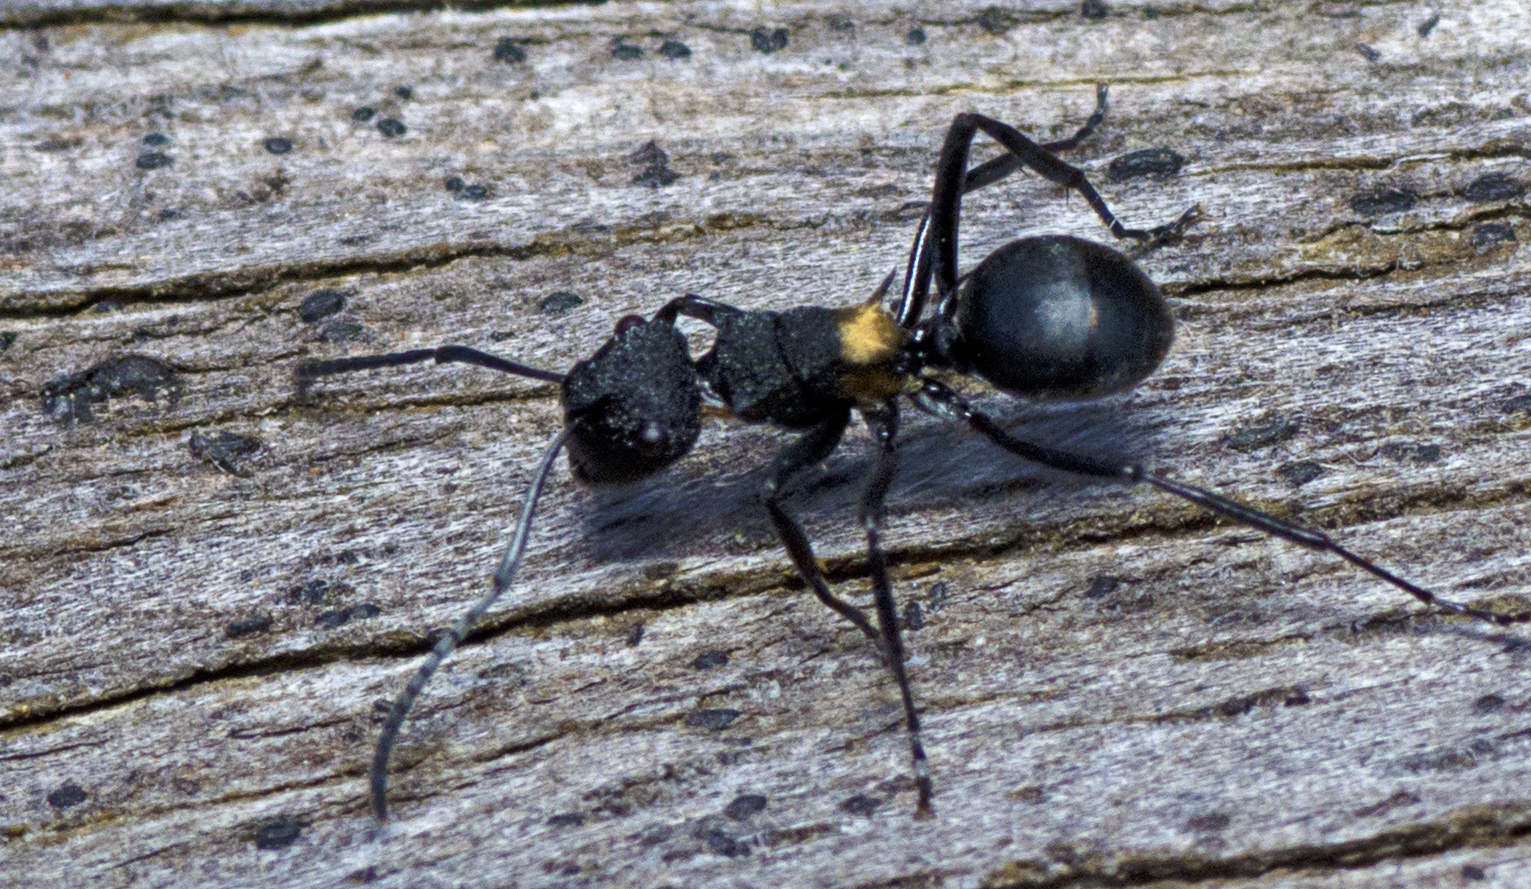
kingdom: Animalia
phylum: Arthropoda
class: Insecta
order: Hymenoptera
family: Formicidae
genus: Polyrhachis
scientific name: Polyrhachis machaon
